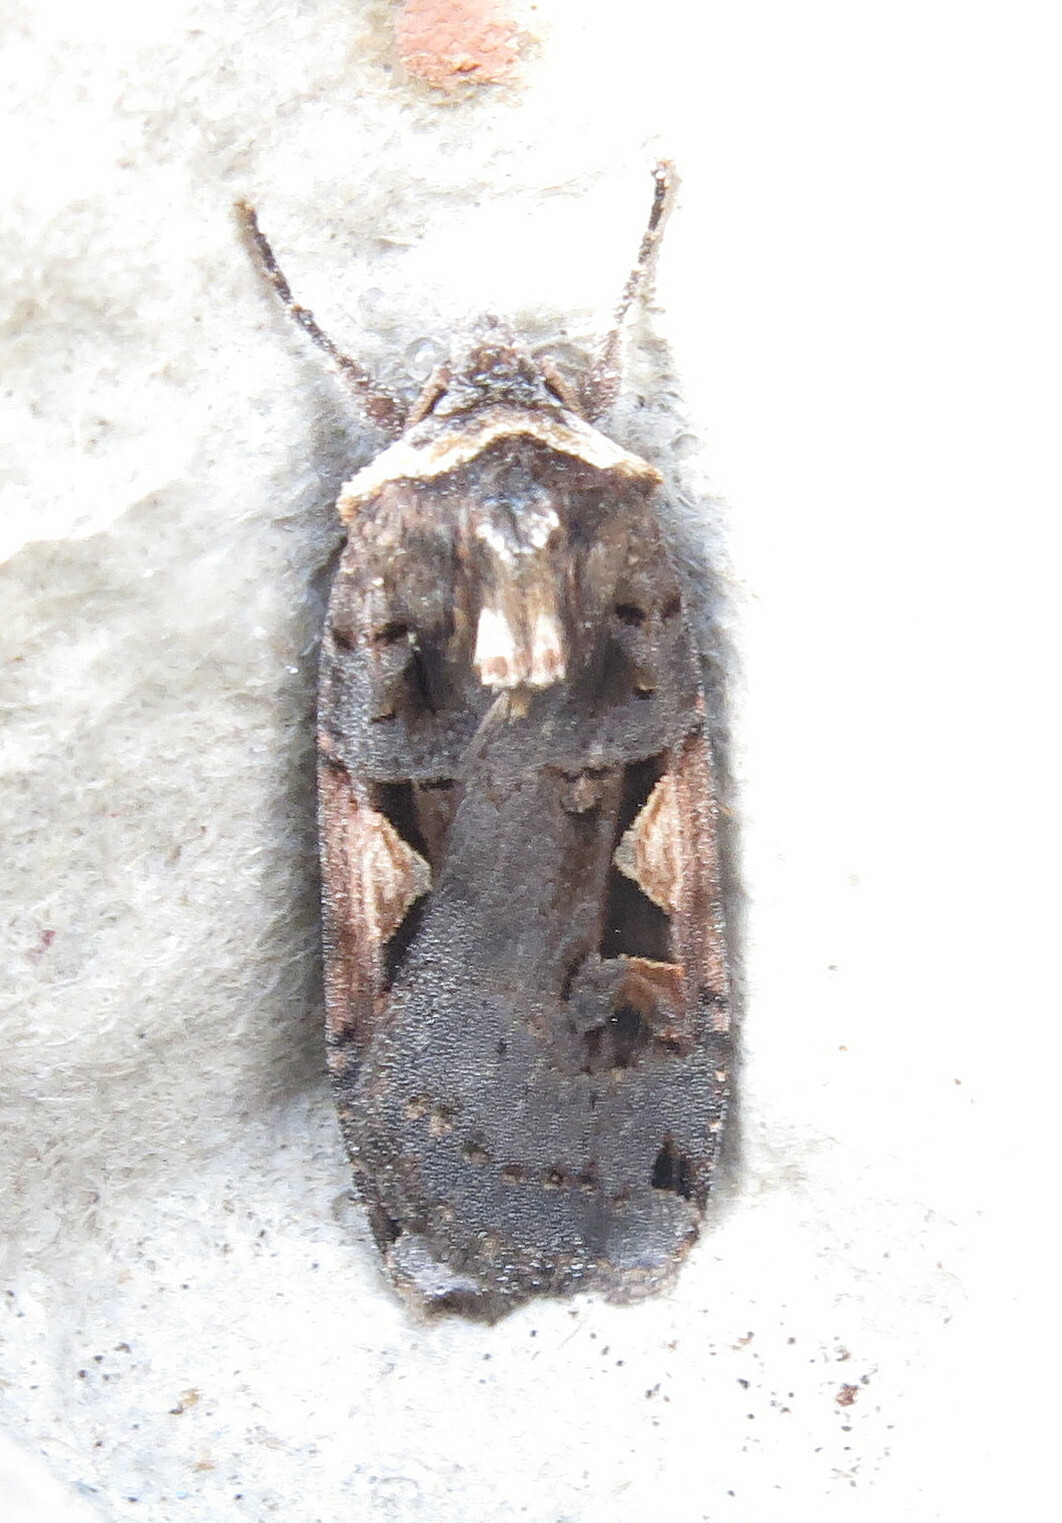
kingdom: Animalia
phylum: Arthropoda
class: Insecta
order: Lepidoptera
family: Noctuidae
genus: Xestia
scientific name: Xestia c-nigrum
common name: Setaceous hebrew character
